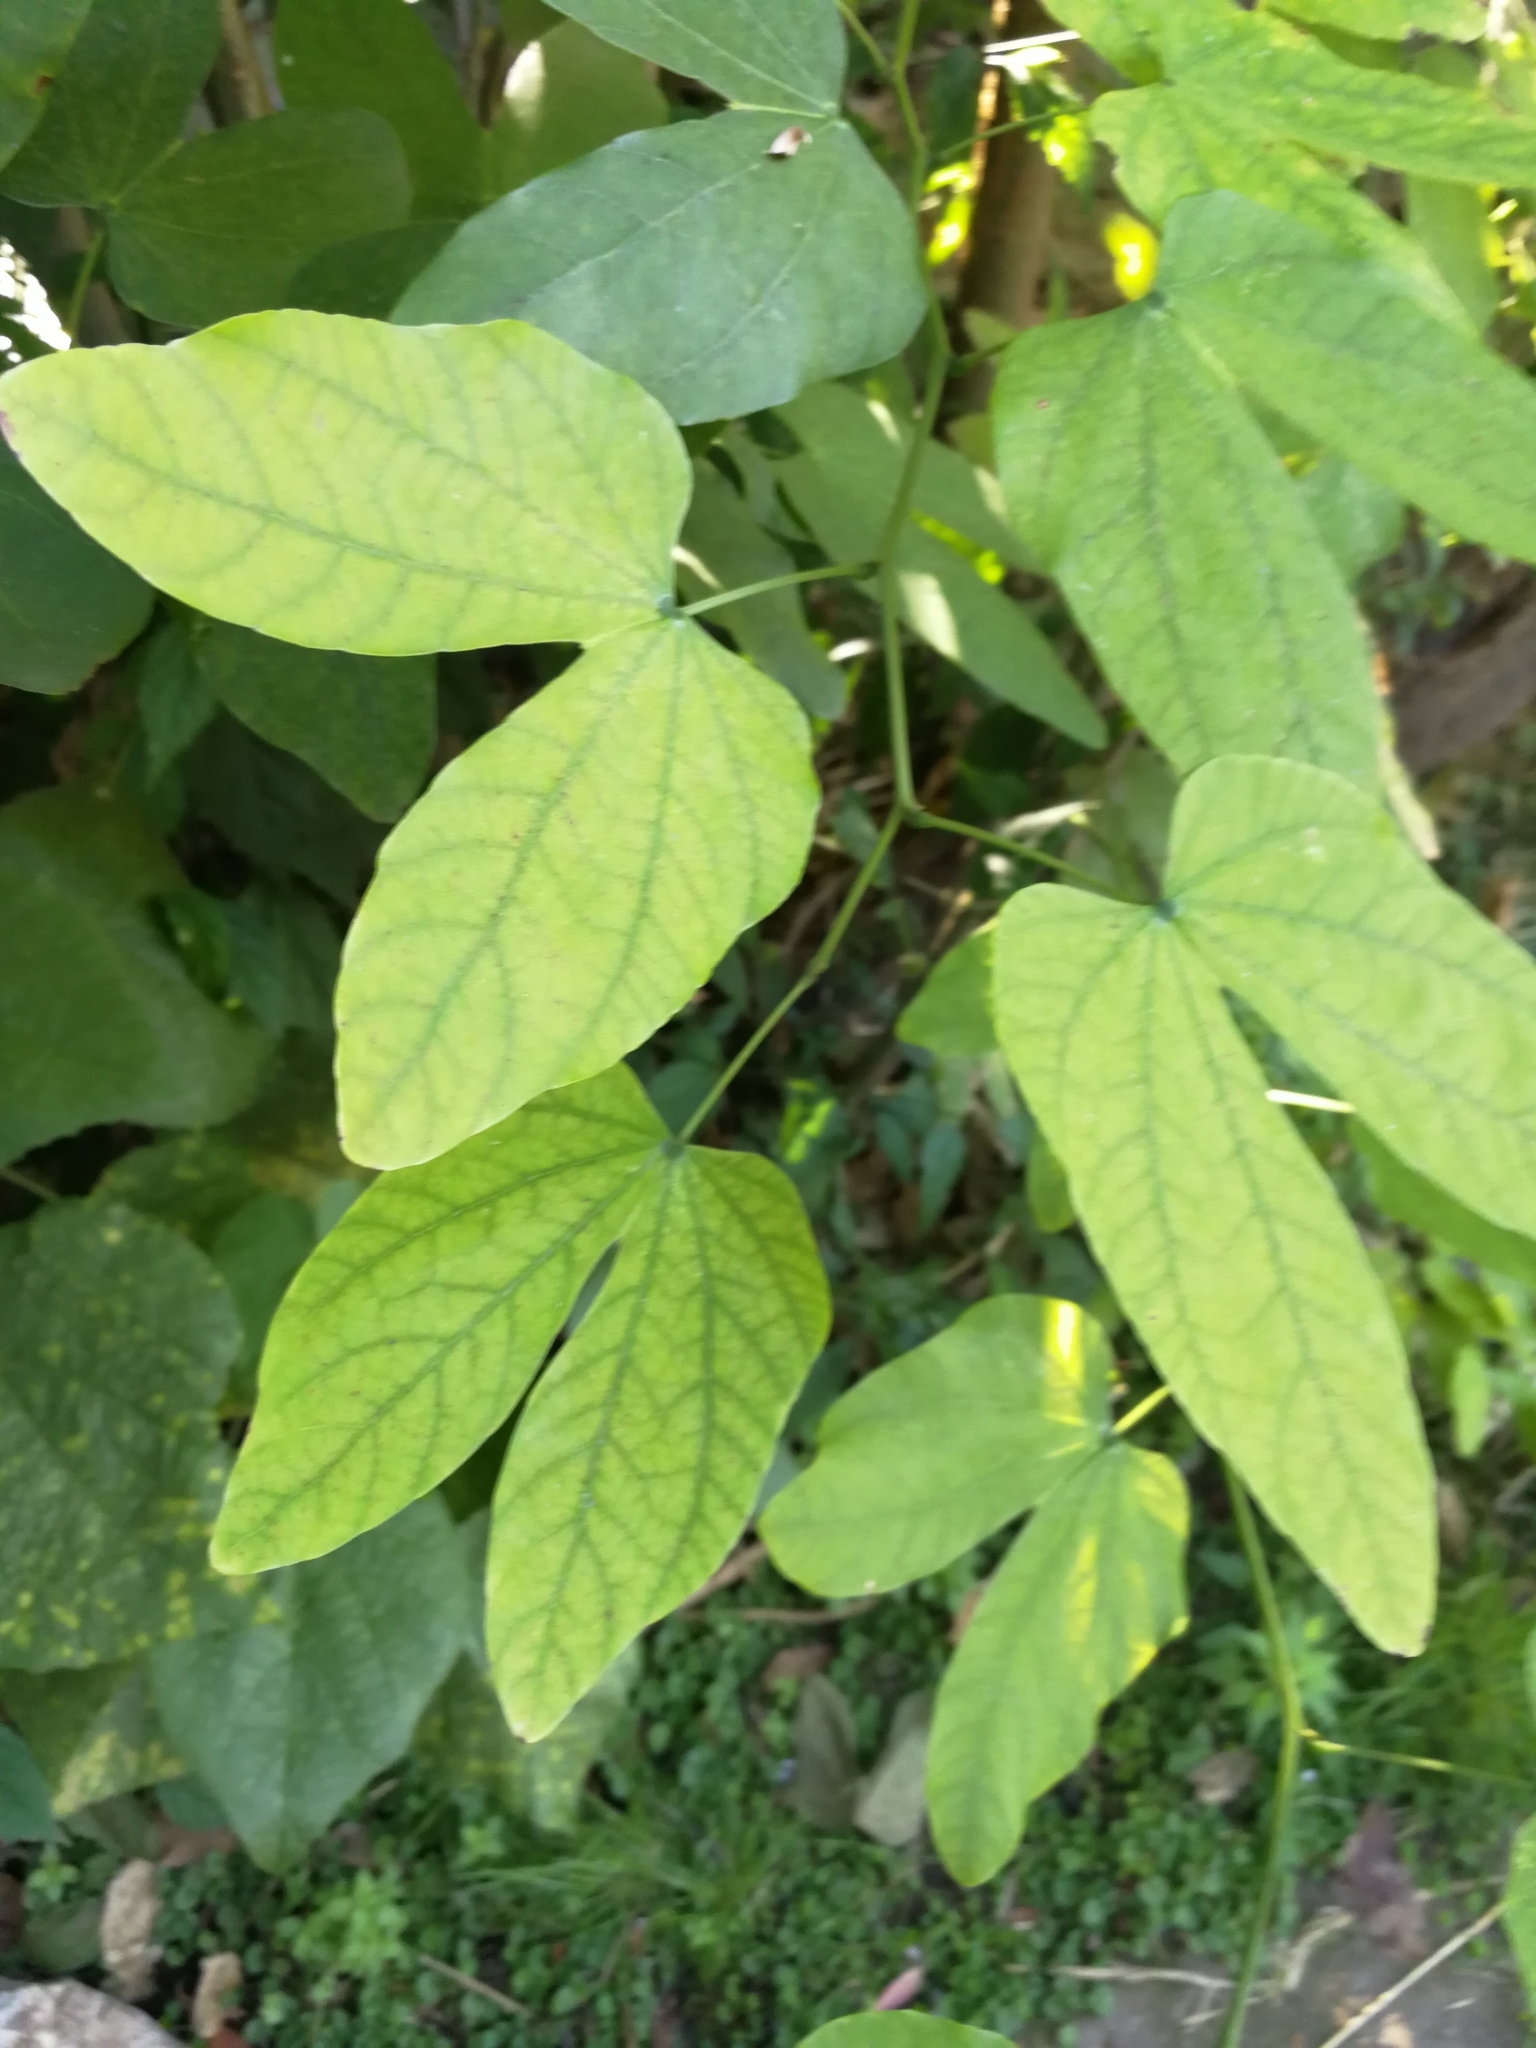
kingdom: Plantae
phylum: Tracheophyta
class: Magnoliopsida
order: Fabales
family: Fabaceae
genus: Bauhinia
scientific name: Bauhinia forficata
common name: Orchid tree
